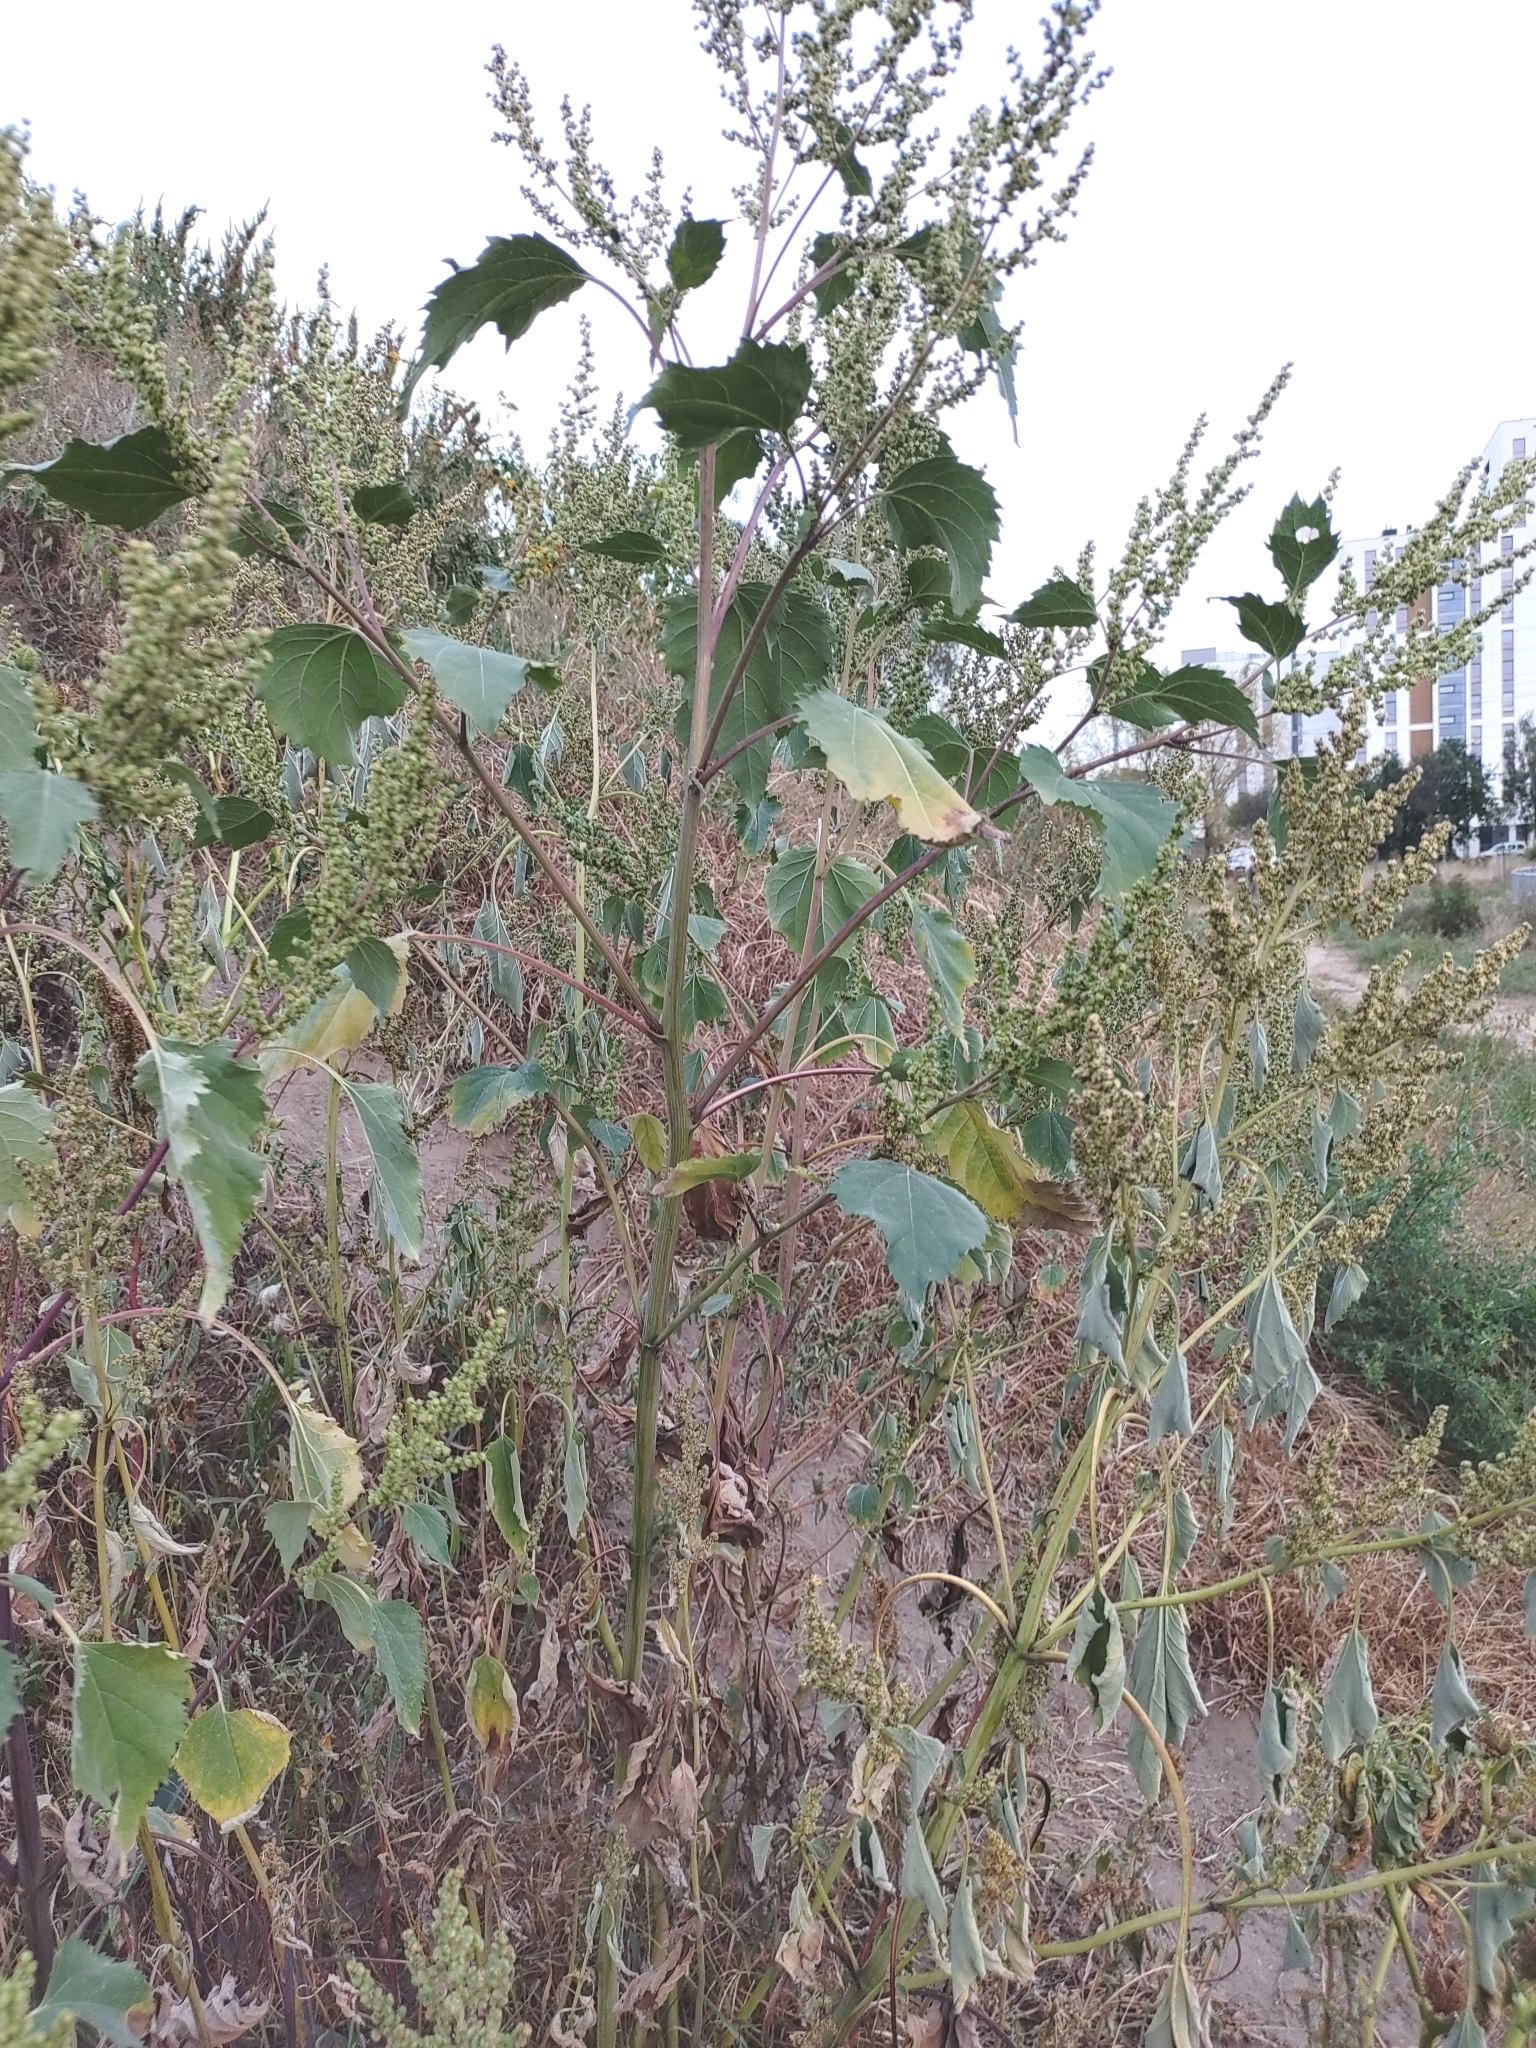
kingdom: Plantae
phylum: Tracheophyta
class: Magnoliopsida
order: Asterales
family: Asteraceae
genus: Cyclachaena
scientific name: Cyclachaena xanthiifolia
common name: Giant sumpweed
